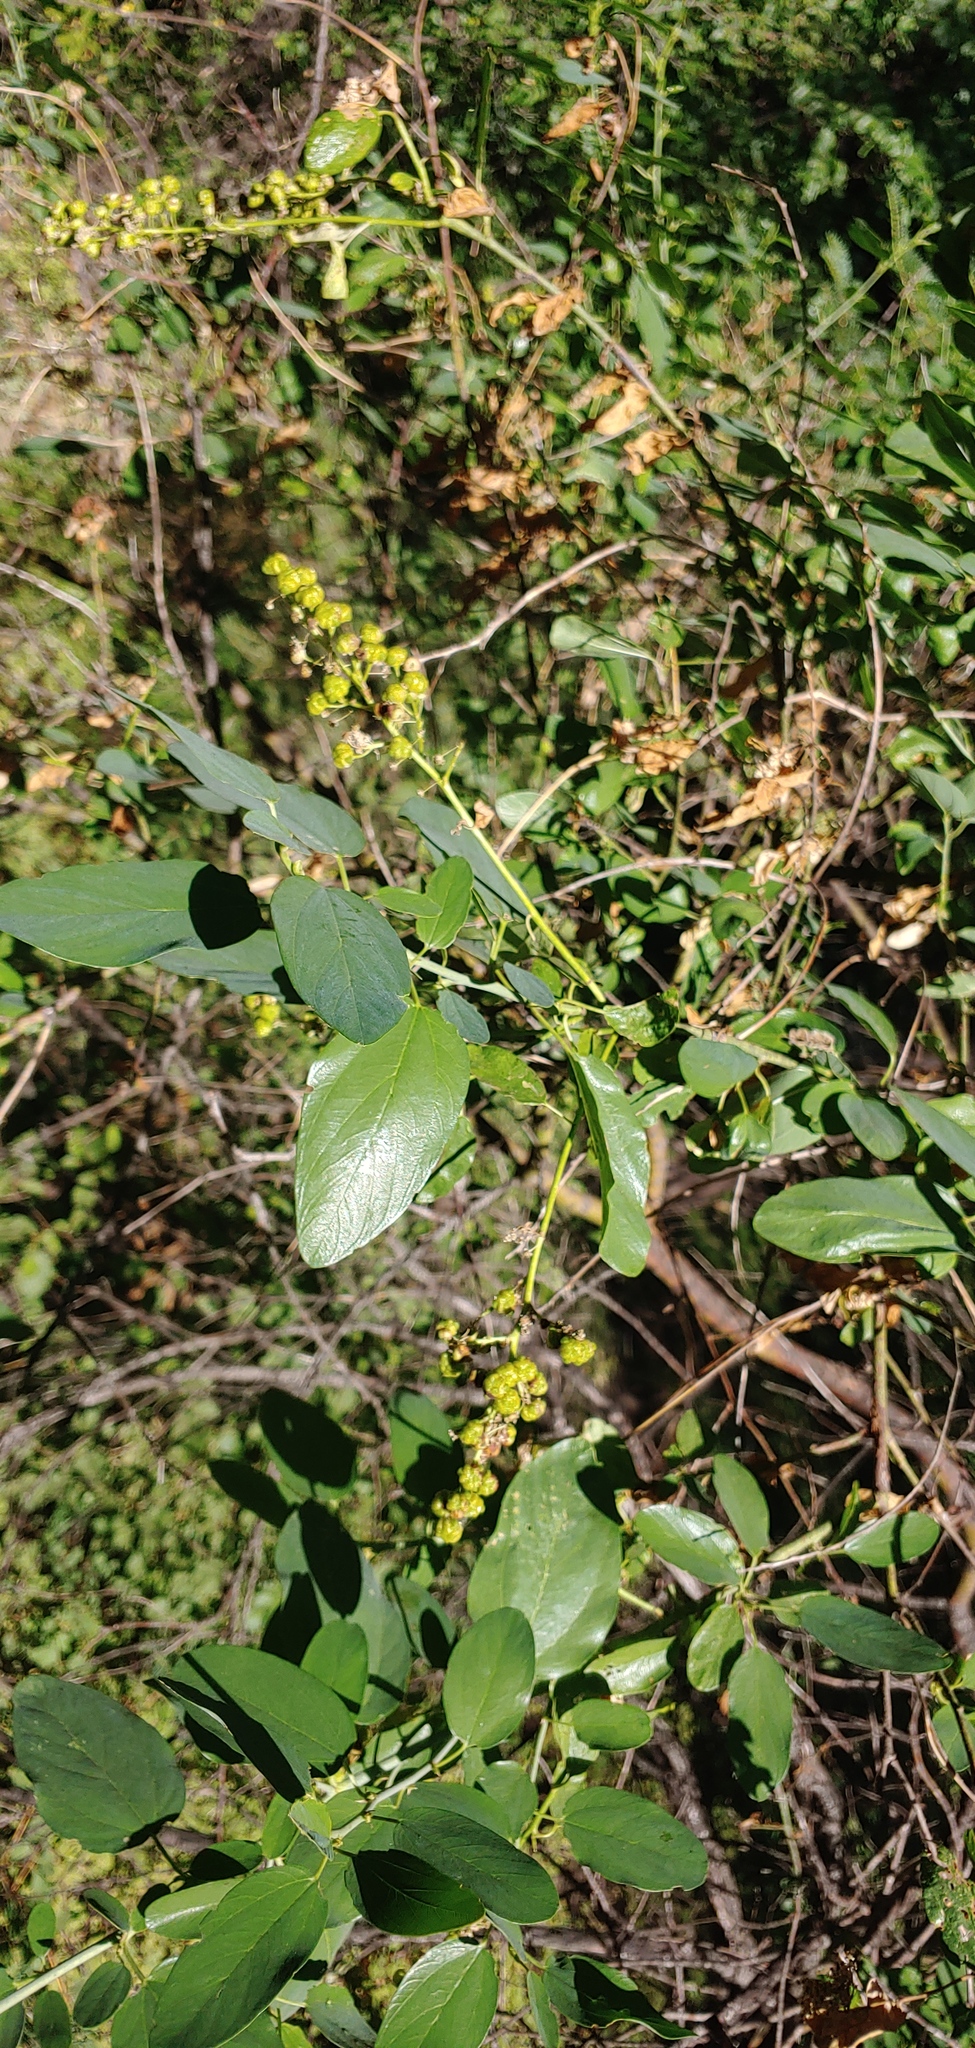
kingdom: Plantae
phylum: Tracheophyta
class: Magnoliopsida
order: Rosales
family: Rhamnaceae
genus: Ceanothus
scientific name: Ceanothus integerrimus
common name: Deerbrush ceanothus
